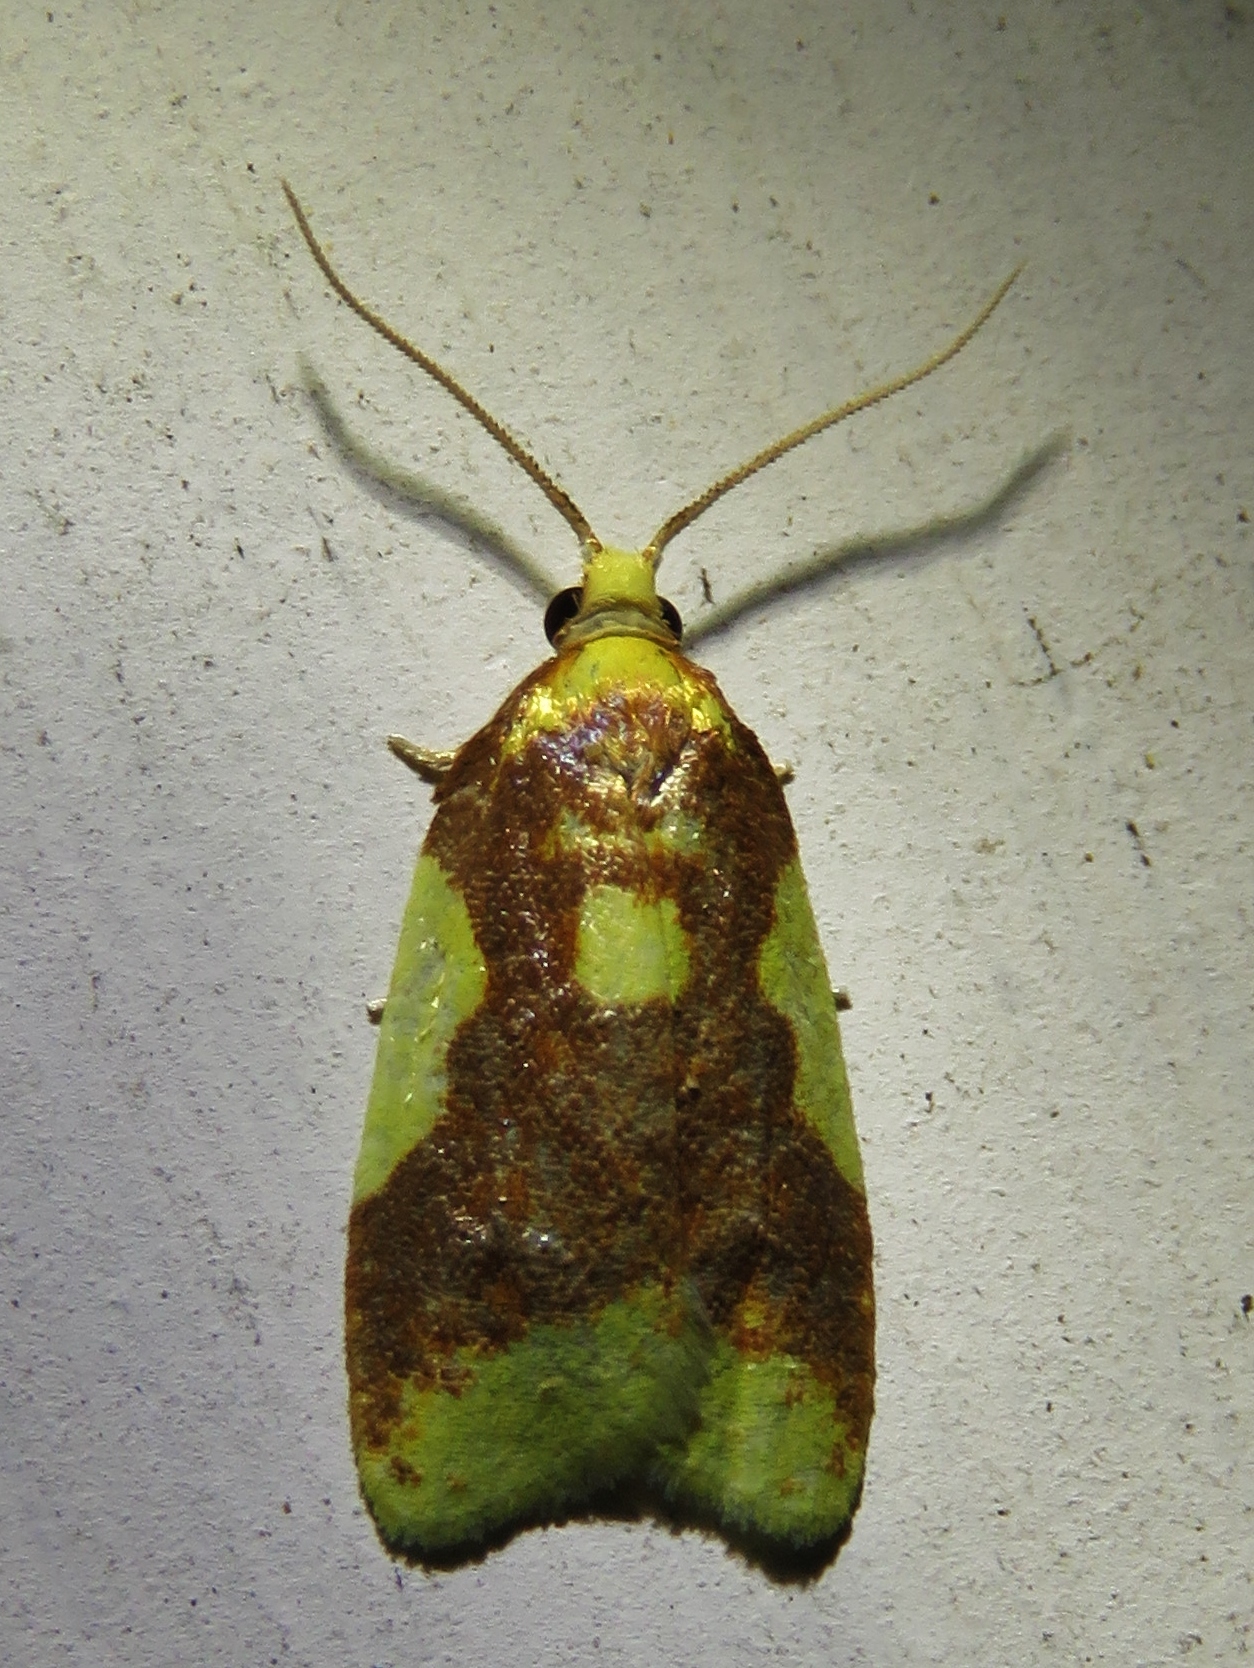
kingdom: Animalia
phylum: Arthropoda
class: Insecta
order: Lepidoptera
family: Tortricidae
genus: Sparganothis
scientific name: Sparganothis pulcherrimana
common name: Beautiful sparganothis
